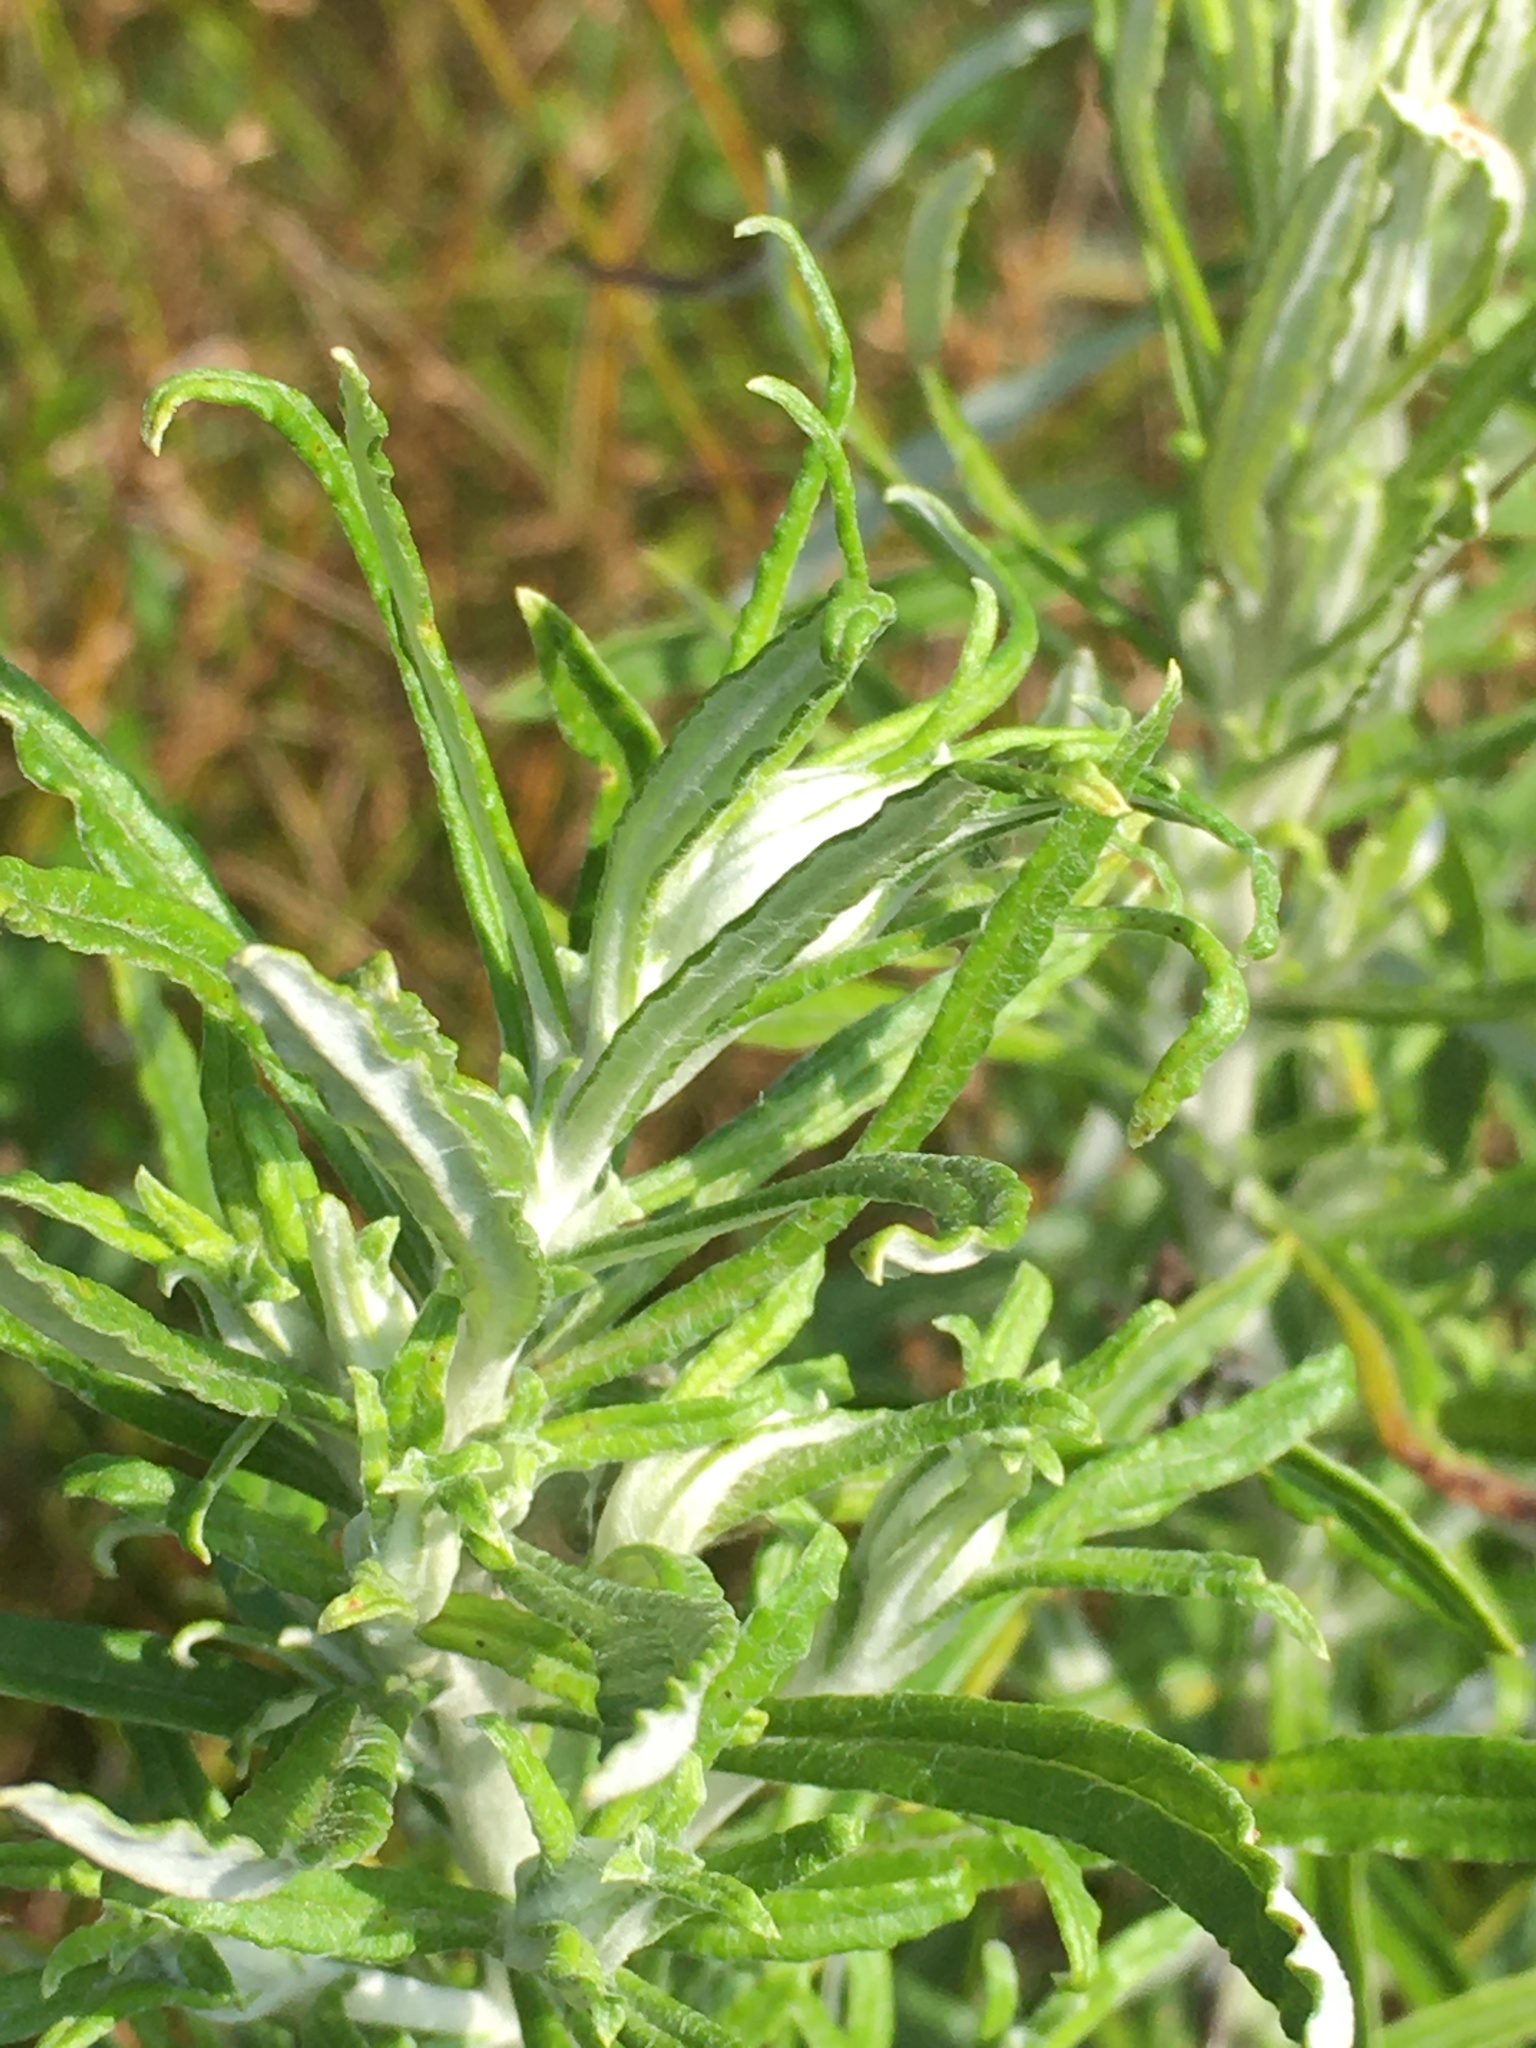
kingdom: Plantae
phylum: Tracheophyta
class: Magnoliopsida
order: Asterales
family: Asteraceae
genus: Pseudognaphalium
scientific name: Pseudognaphalium obtusifolium
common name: Eastern rabbit-tobacco
